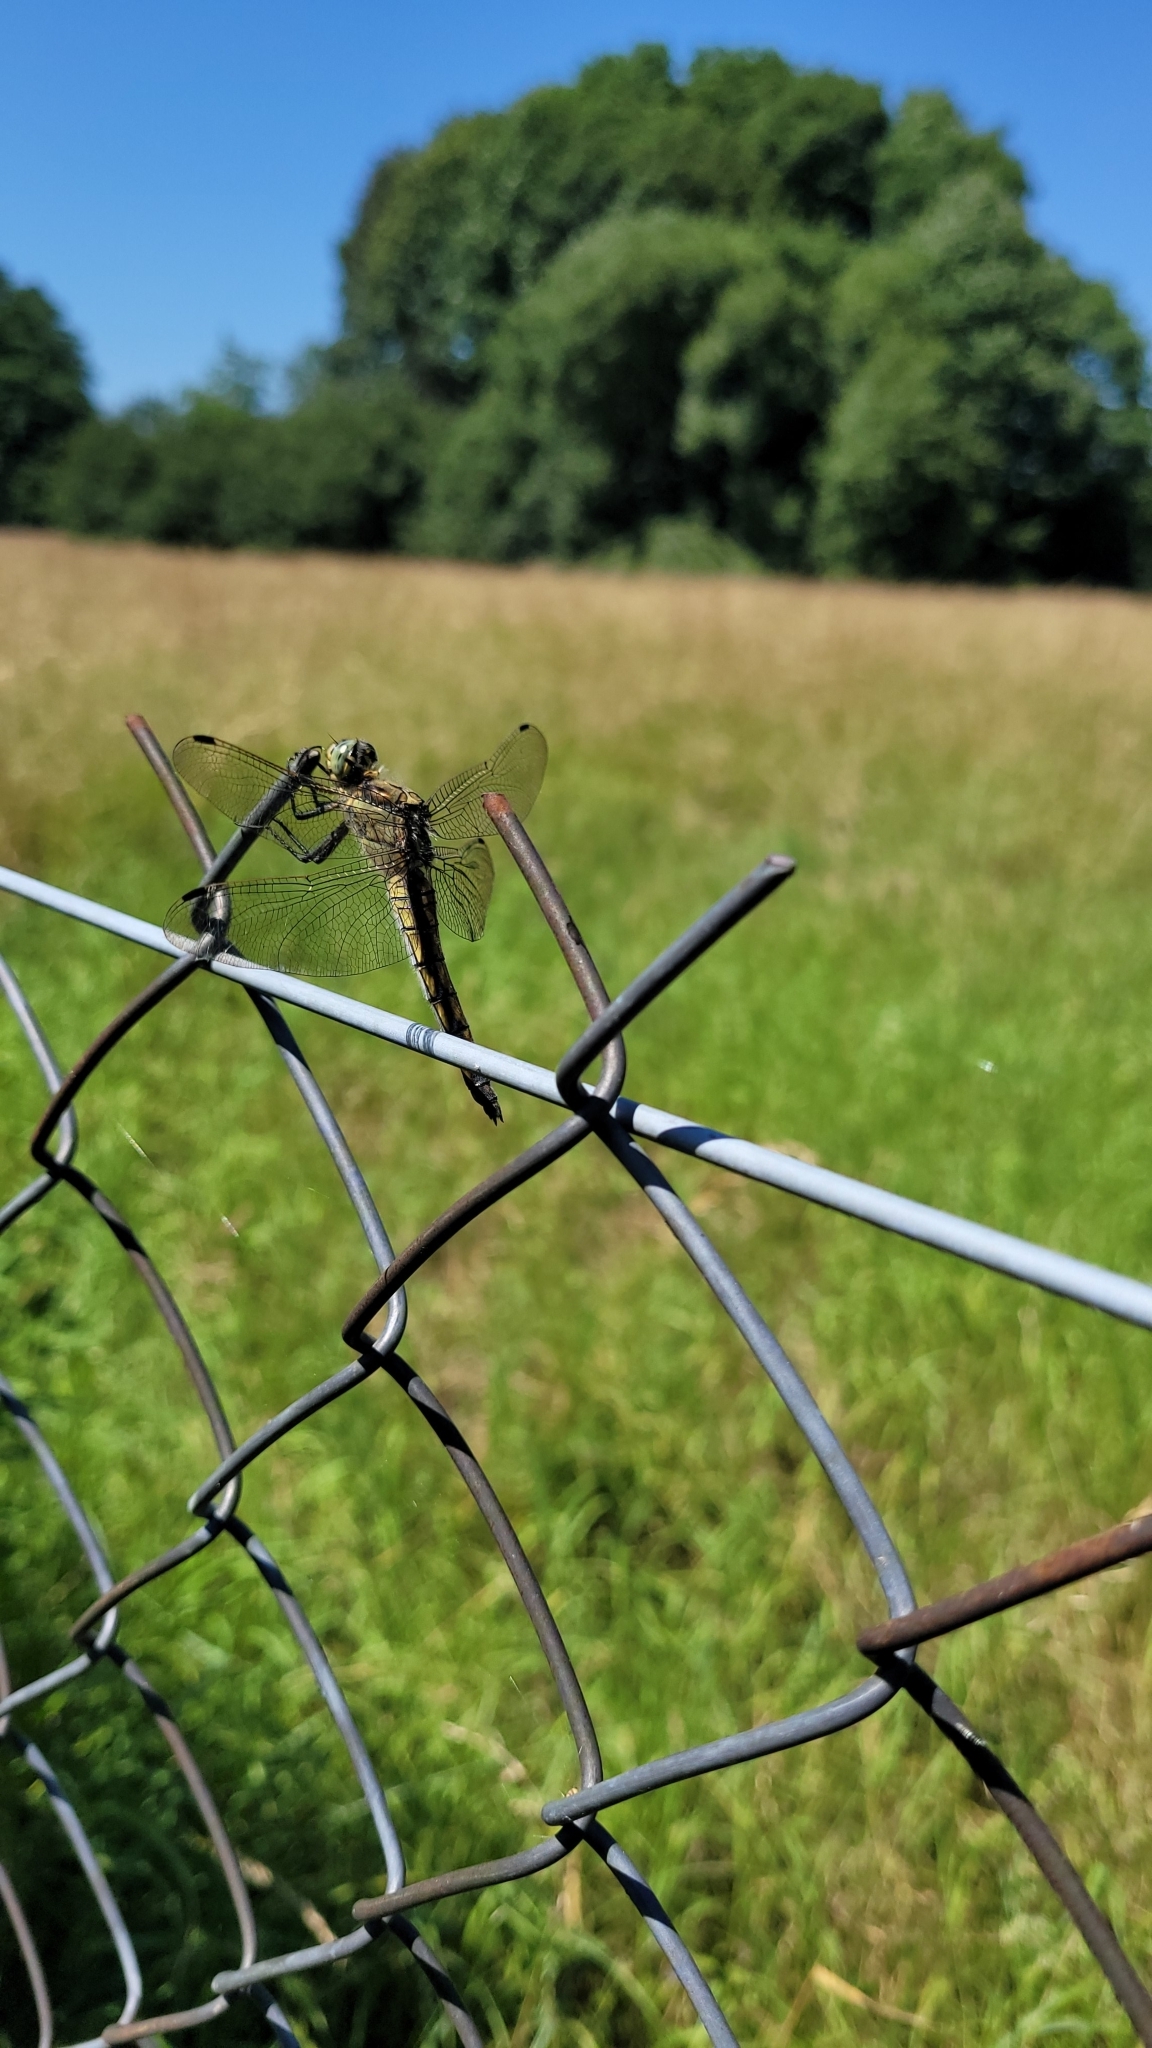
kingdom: Animalia
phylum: Arthropoda
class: Insecta
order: Odonata
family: Libellulidae
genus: Orthetrum
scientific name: Orthetrum cancellatum
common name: Black-tailed skimmer
